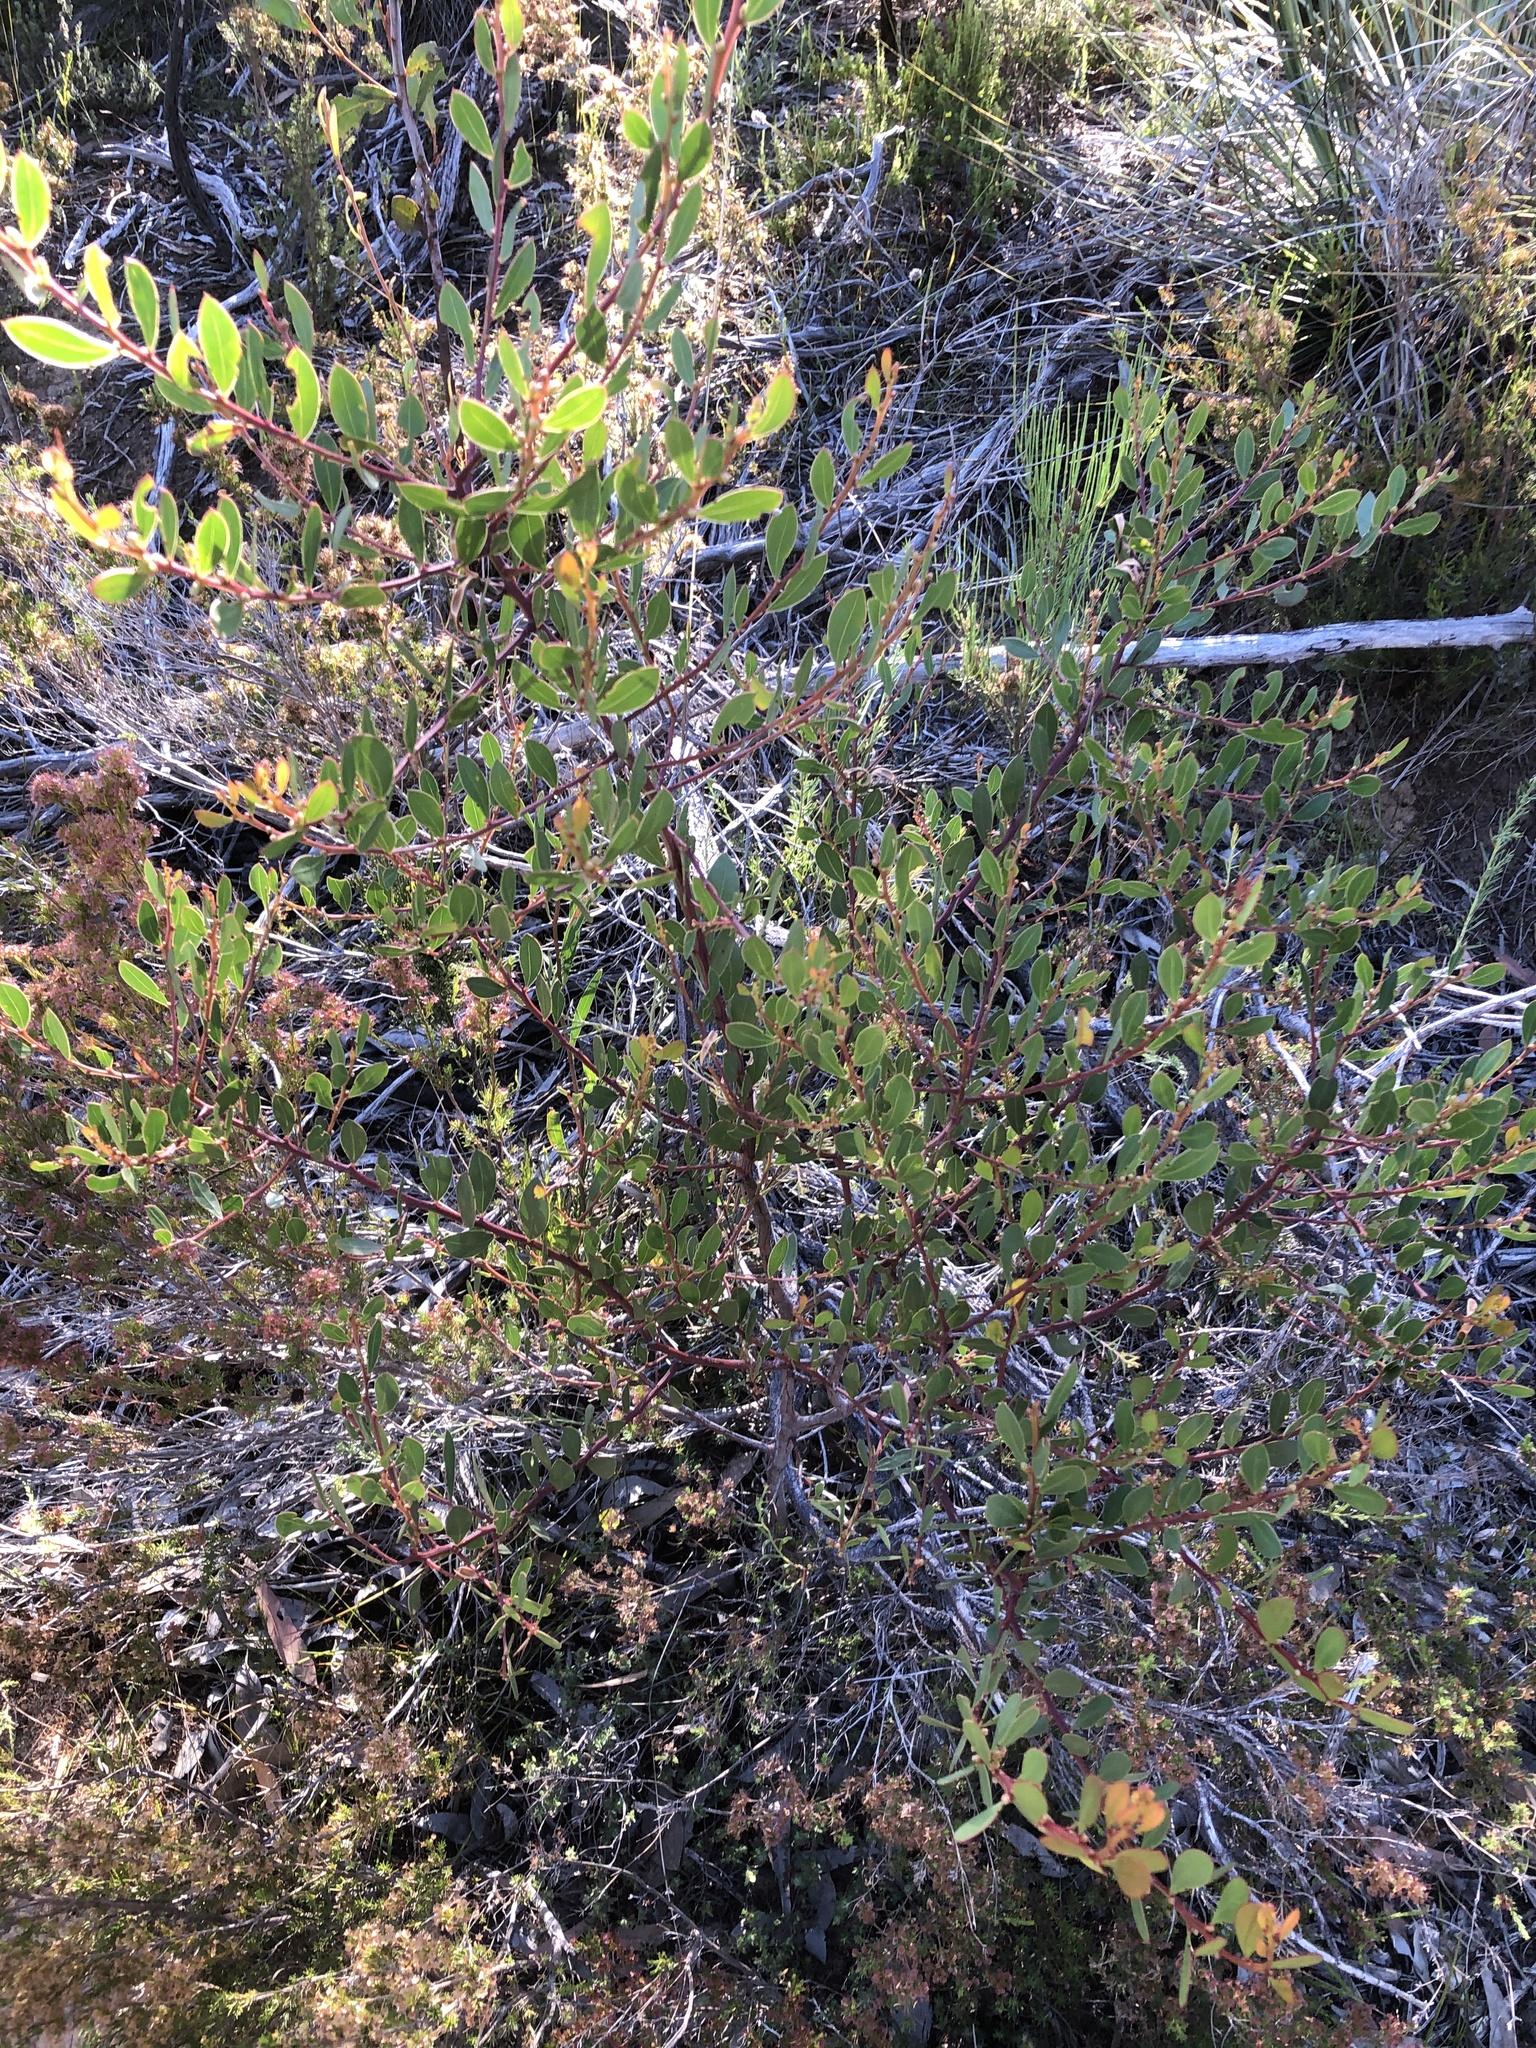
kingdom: Plantae
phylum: Tracheophyta
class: Magnoliopsida
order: Fabales
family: Fabaceae
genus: Acacia
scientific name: Acacia myrtifolia
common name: Myrtle wattle
